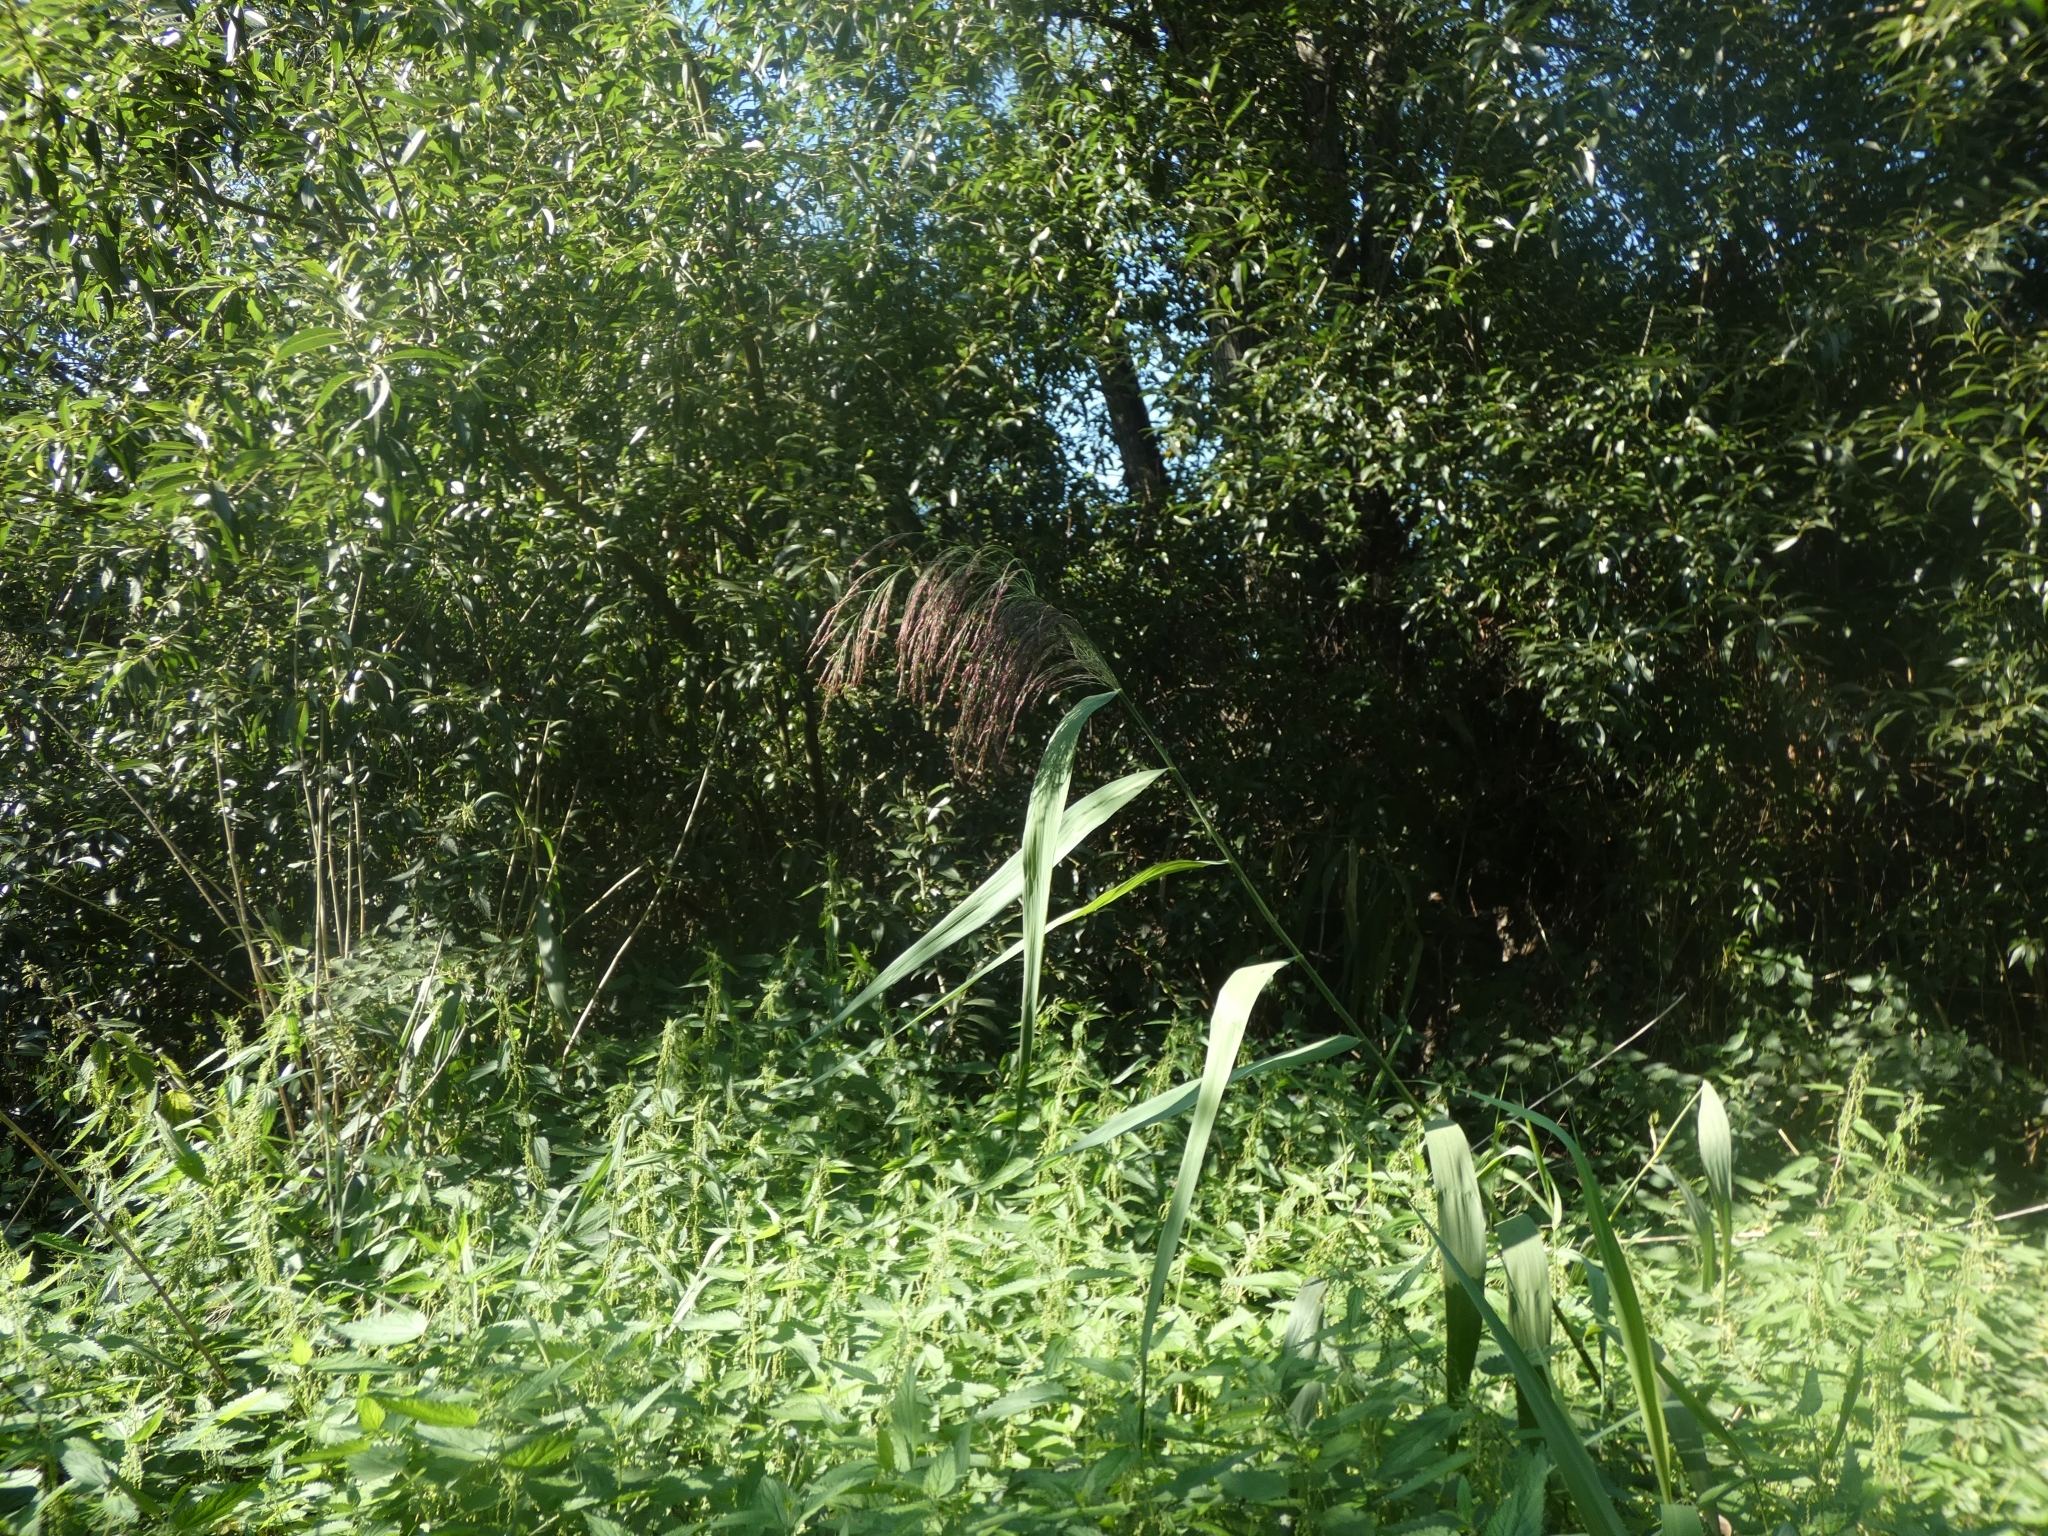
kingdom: Plantae
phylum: Tracheophyta
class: Liliopsida
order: Poales
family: Poaceae
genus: Phragmites
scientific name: Phragmites australis
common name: Common reed
